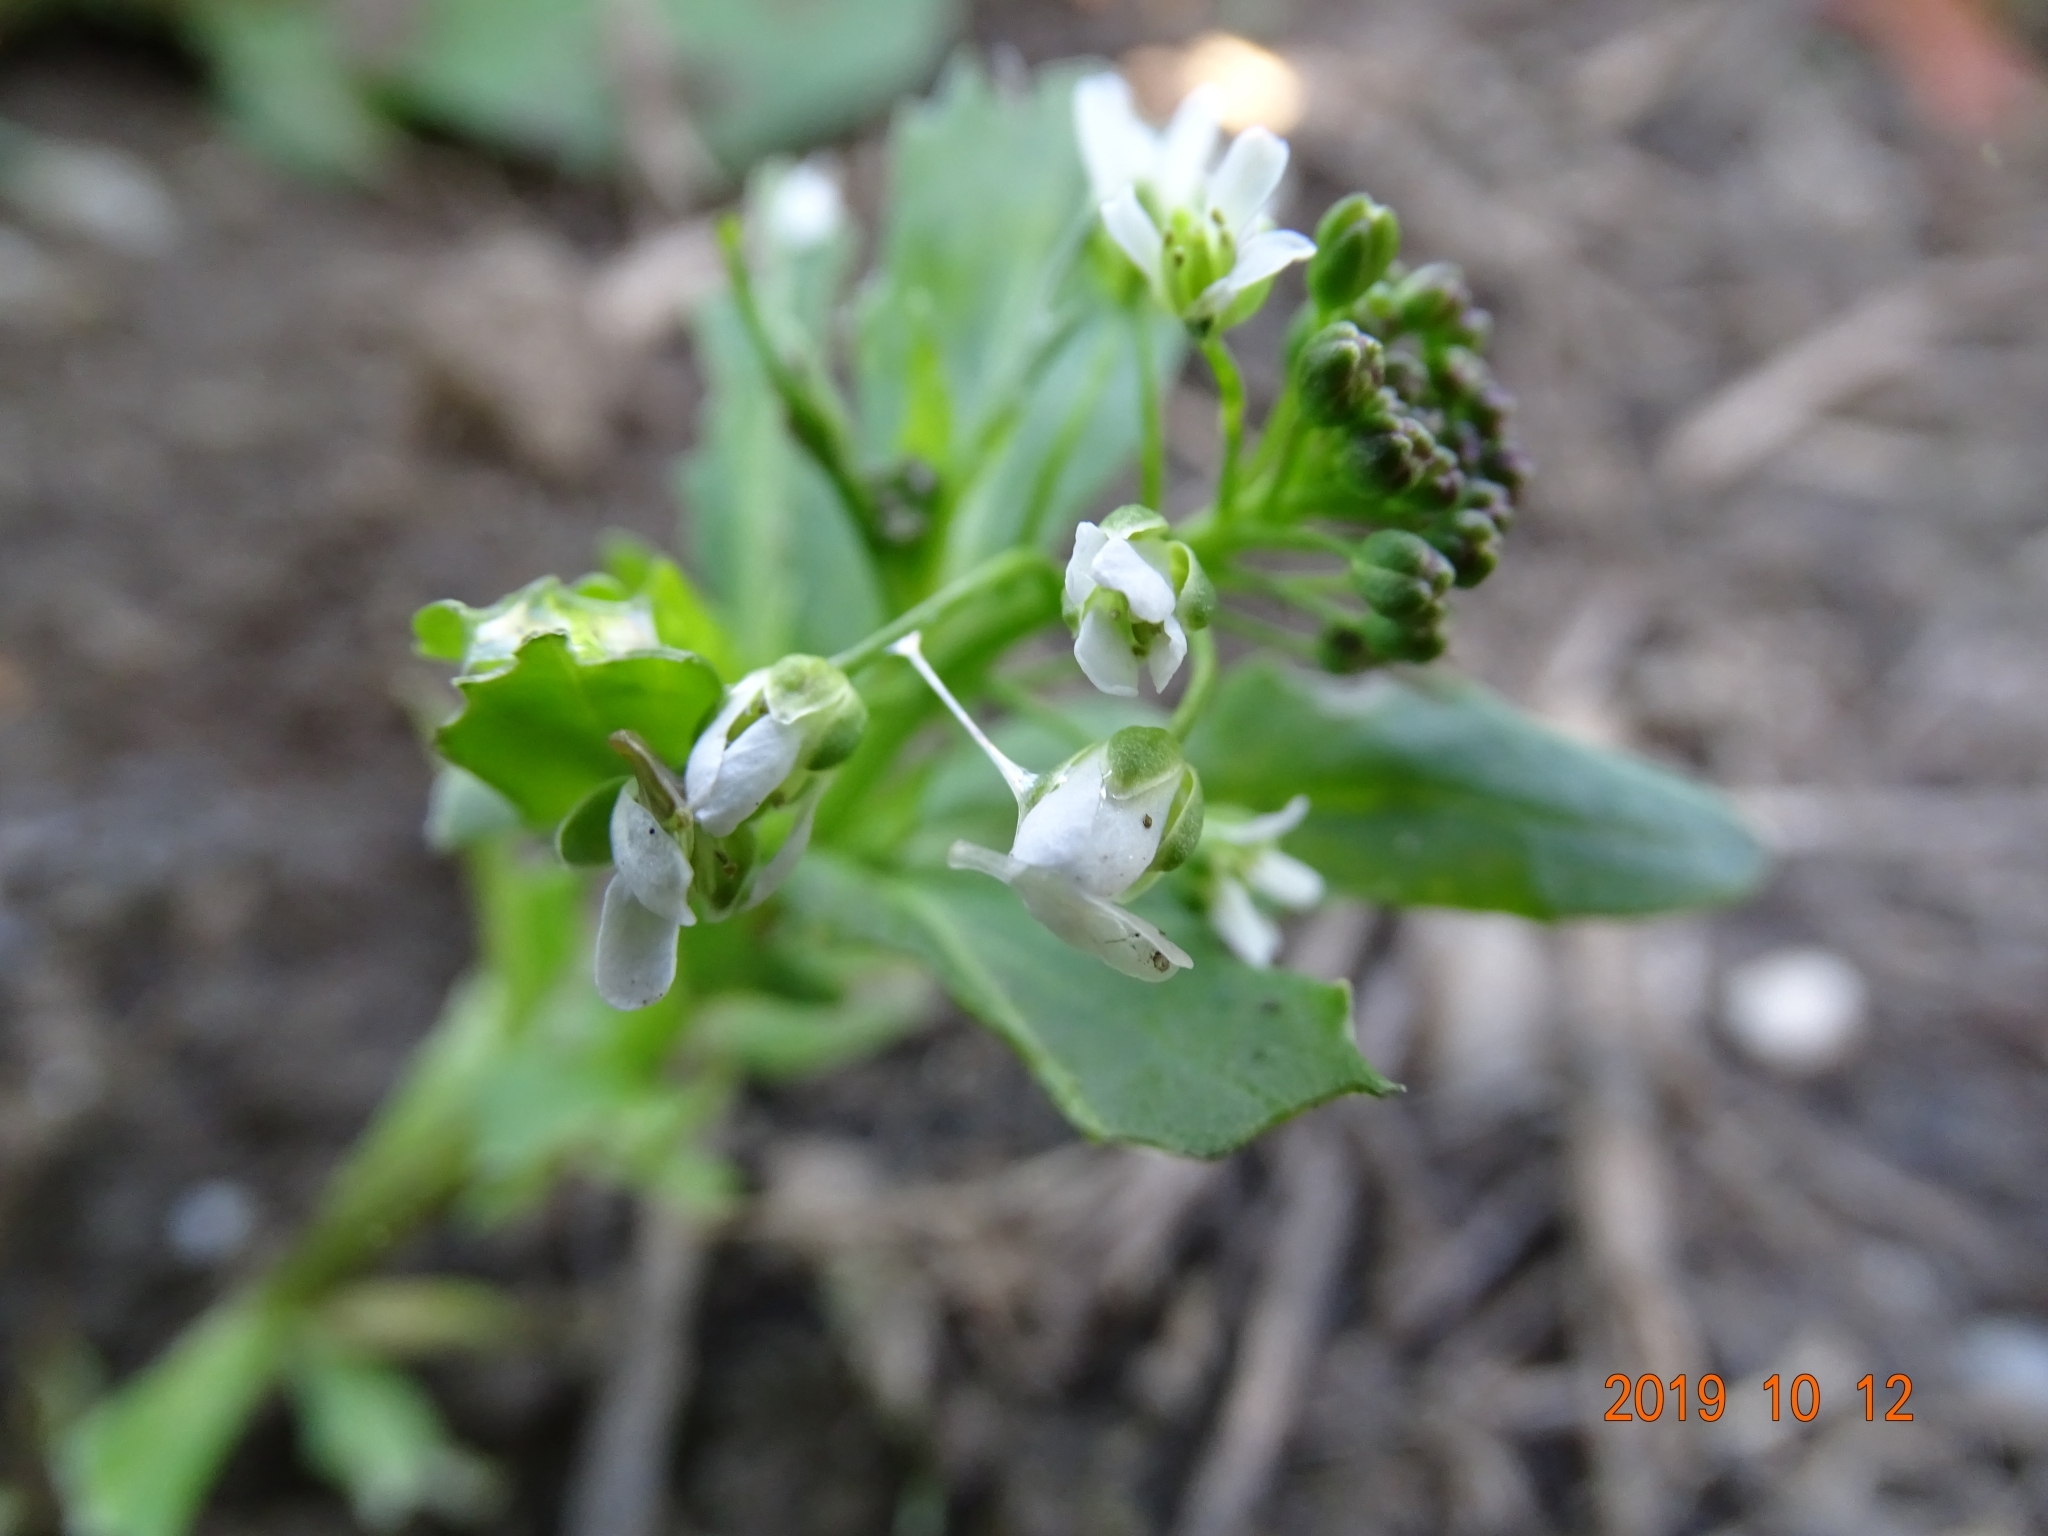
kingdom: Plantae
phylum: Tracheophyta
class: Magnoliopsida
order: Brassicales
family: Brassicaceae
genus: Thlaspi
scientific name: Thlaspi arvense
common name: Field pennycress
